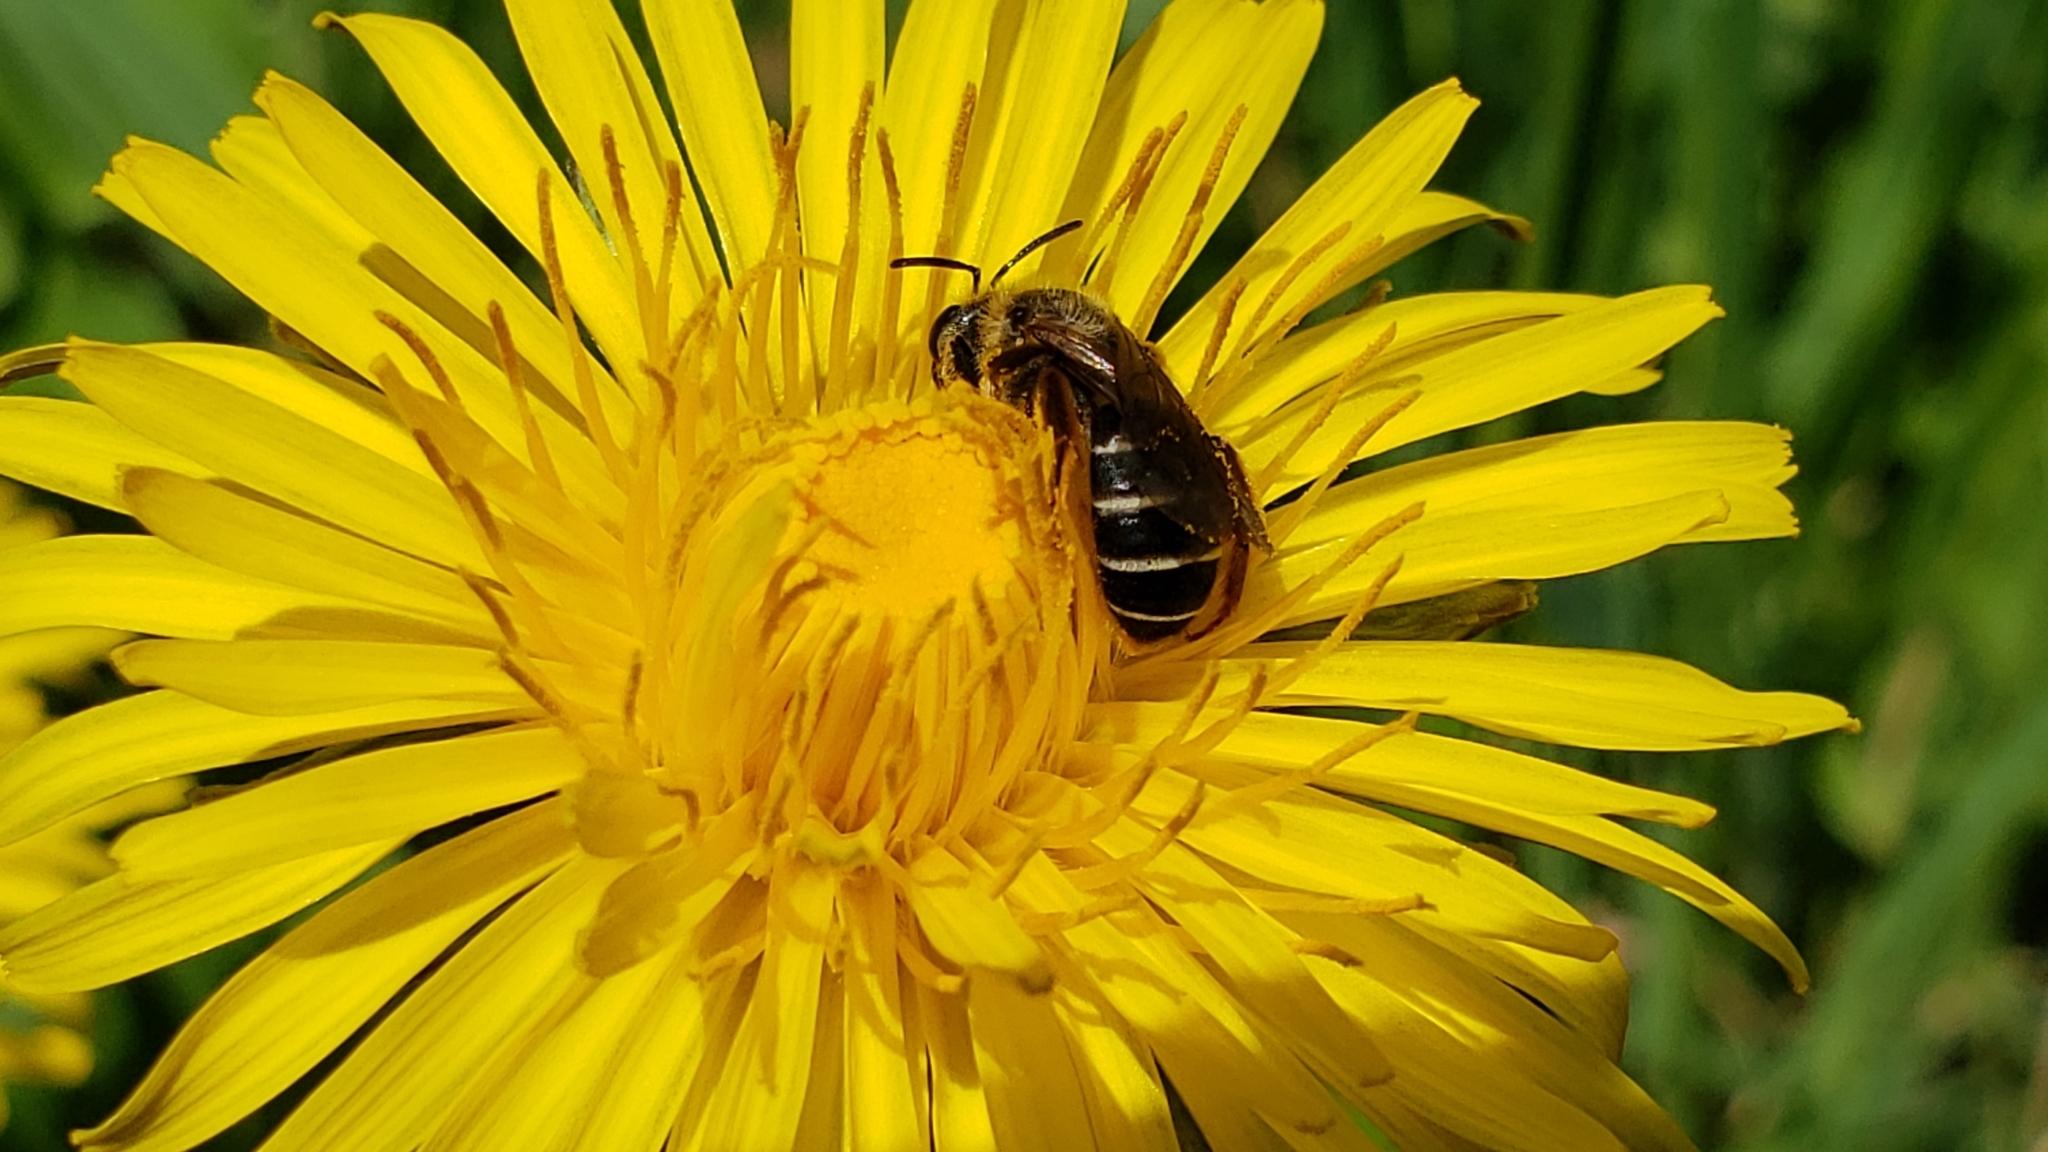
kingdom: Animalia
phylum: Arthropoda
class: Insecta
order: Hymenoptera
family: Halictidae
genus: Halictus
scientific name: Halictus rubicundus
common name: Orange-legged furrow bee
